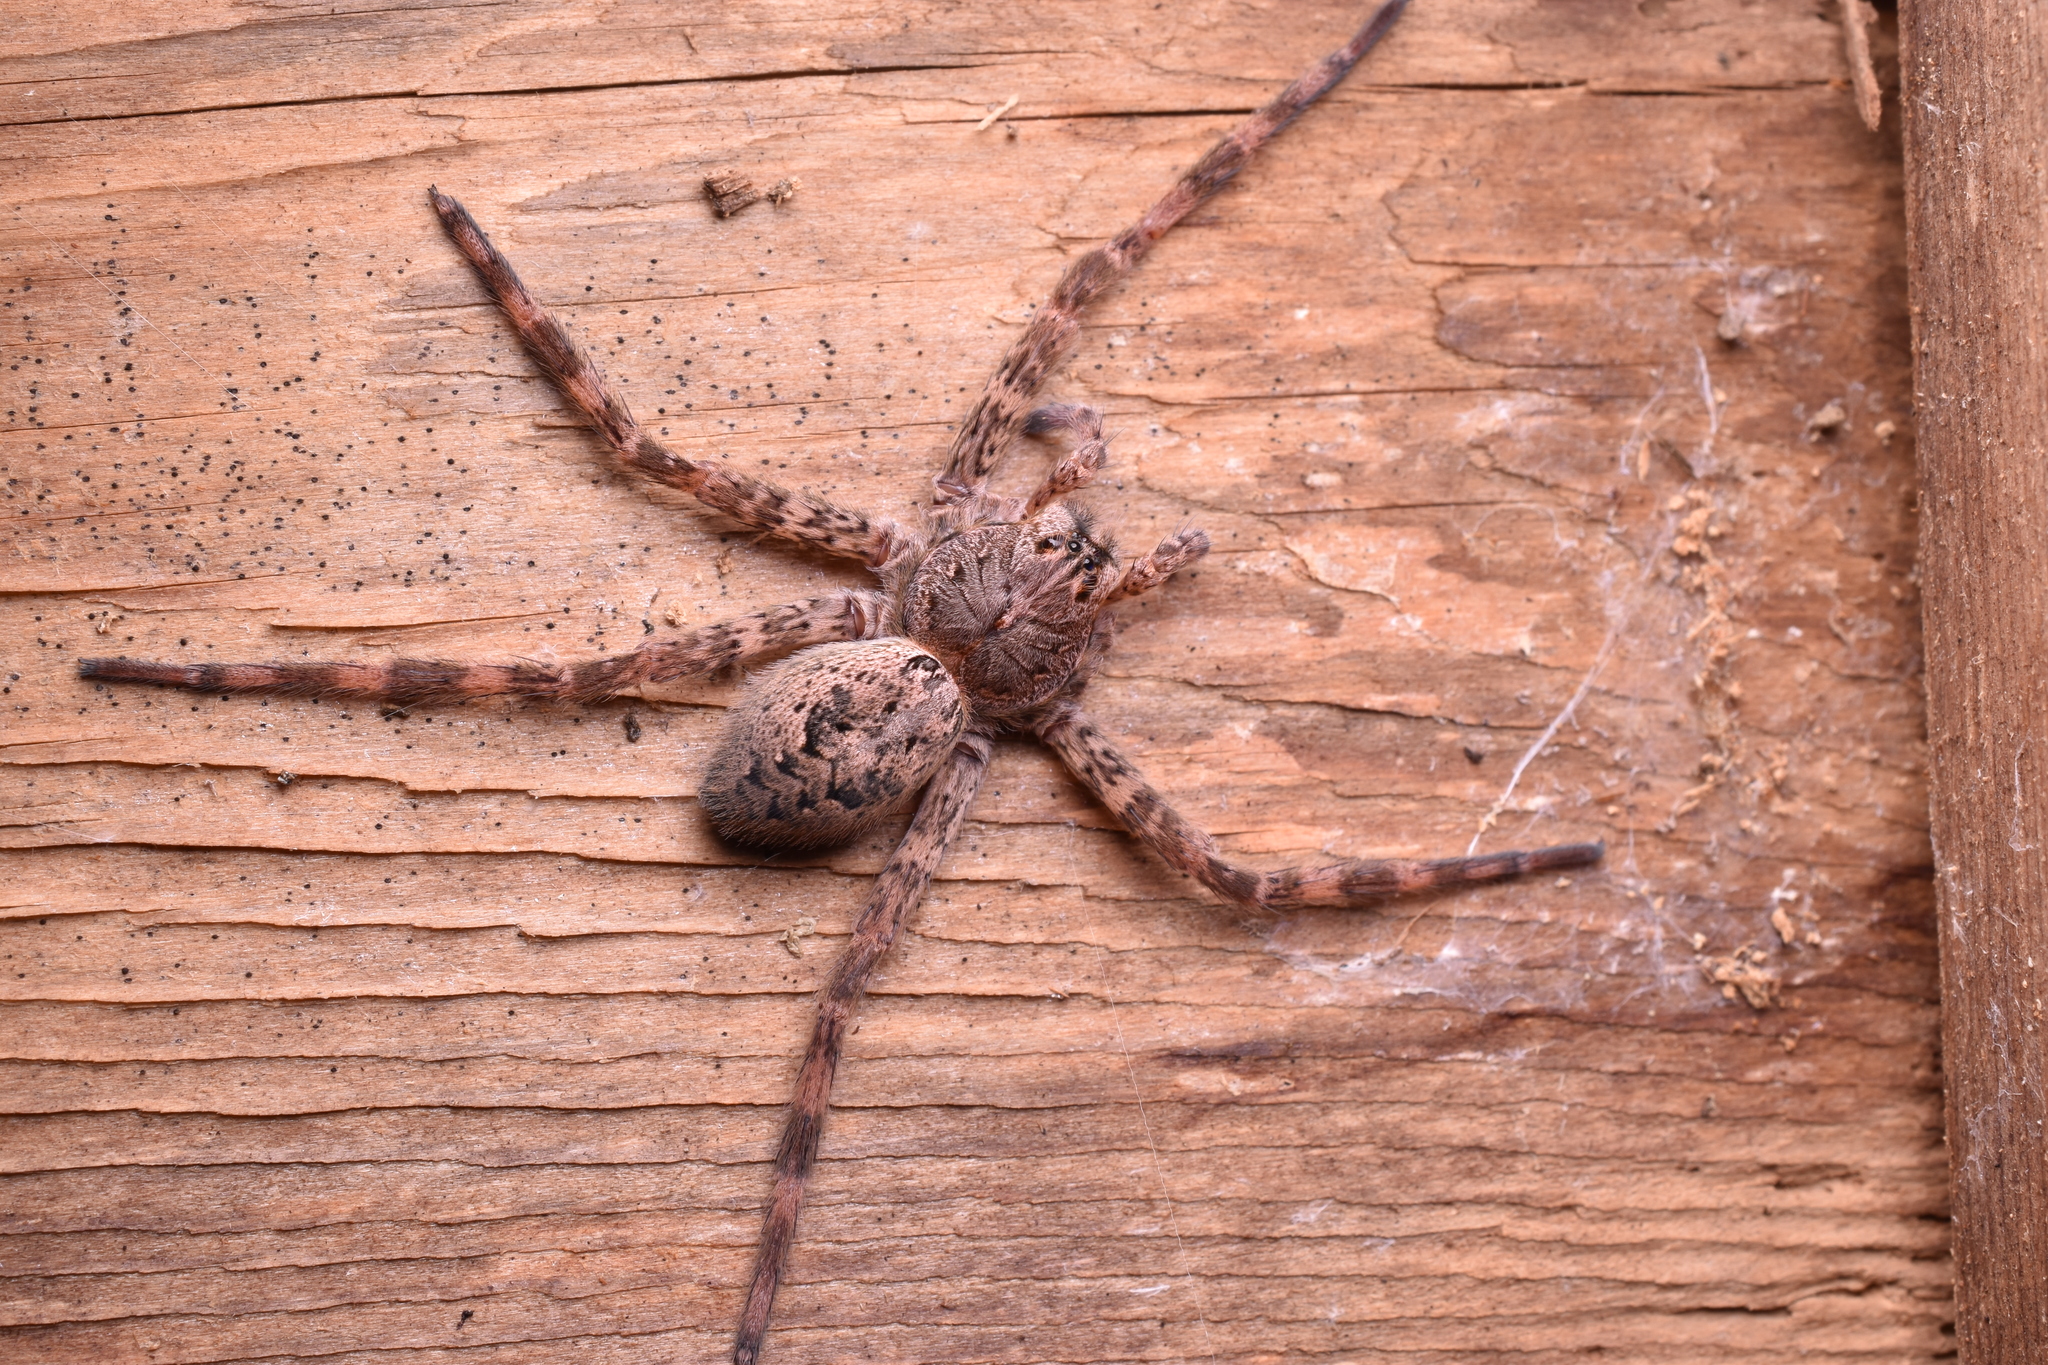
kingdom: Animalia
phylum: Arthropoda
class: Arachnida
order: Araneae
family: Pisauridae
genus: Dolomedes
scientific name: Dolomedes tenebrosus
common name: Dark fishing spider
